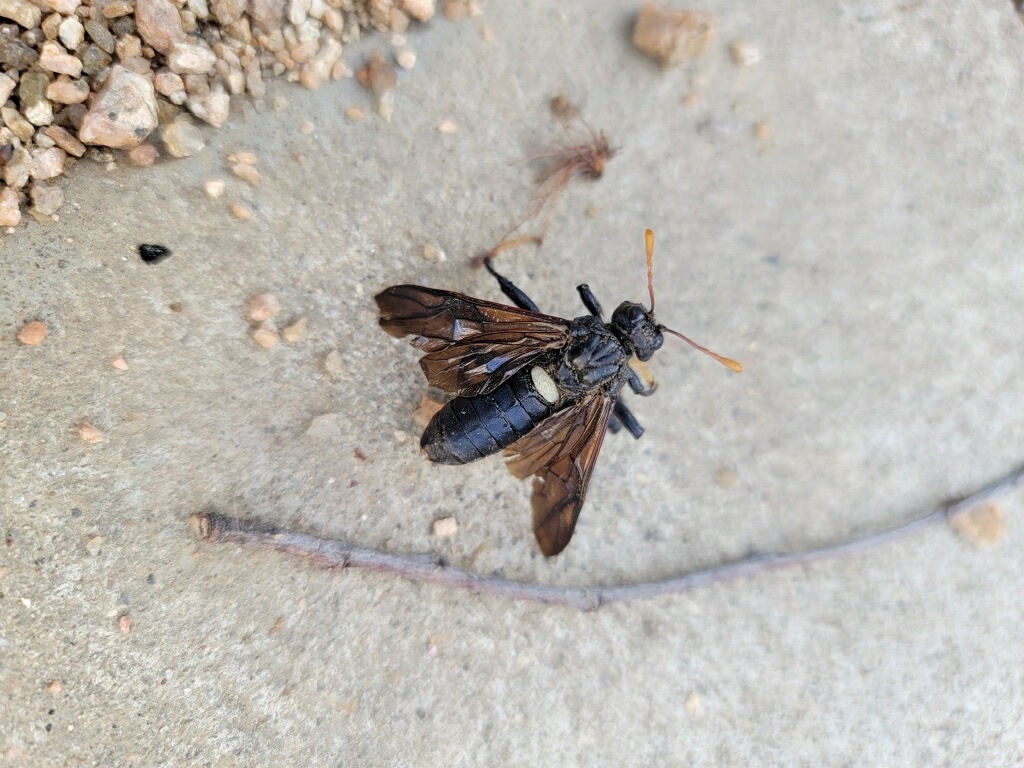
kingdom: Animalia
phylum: Arthropoda
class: Insecta
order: Hymenoptera
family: Cimbicidae
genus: Cimbex
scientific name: Cimbex americana
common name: Elm sawfly
